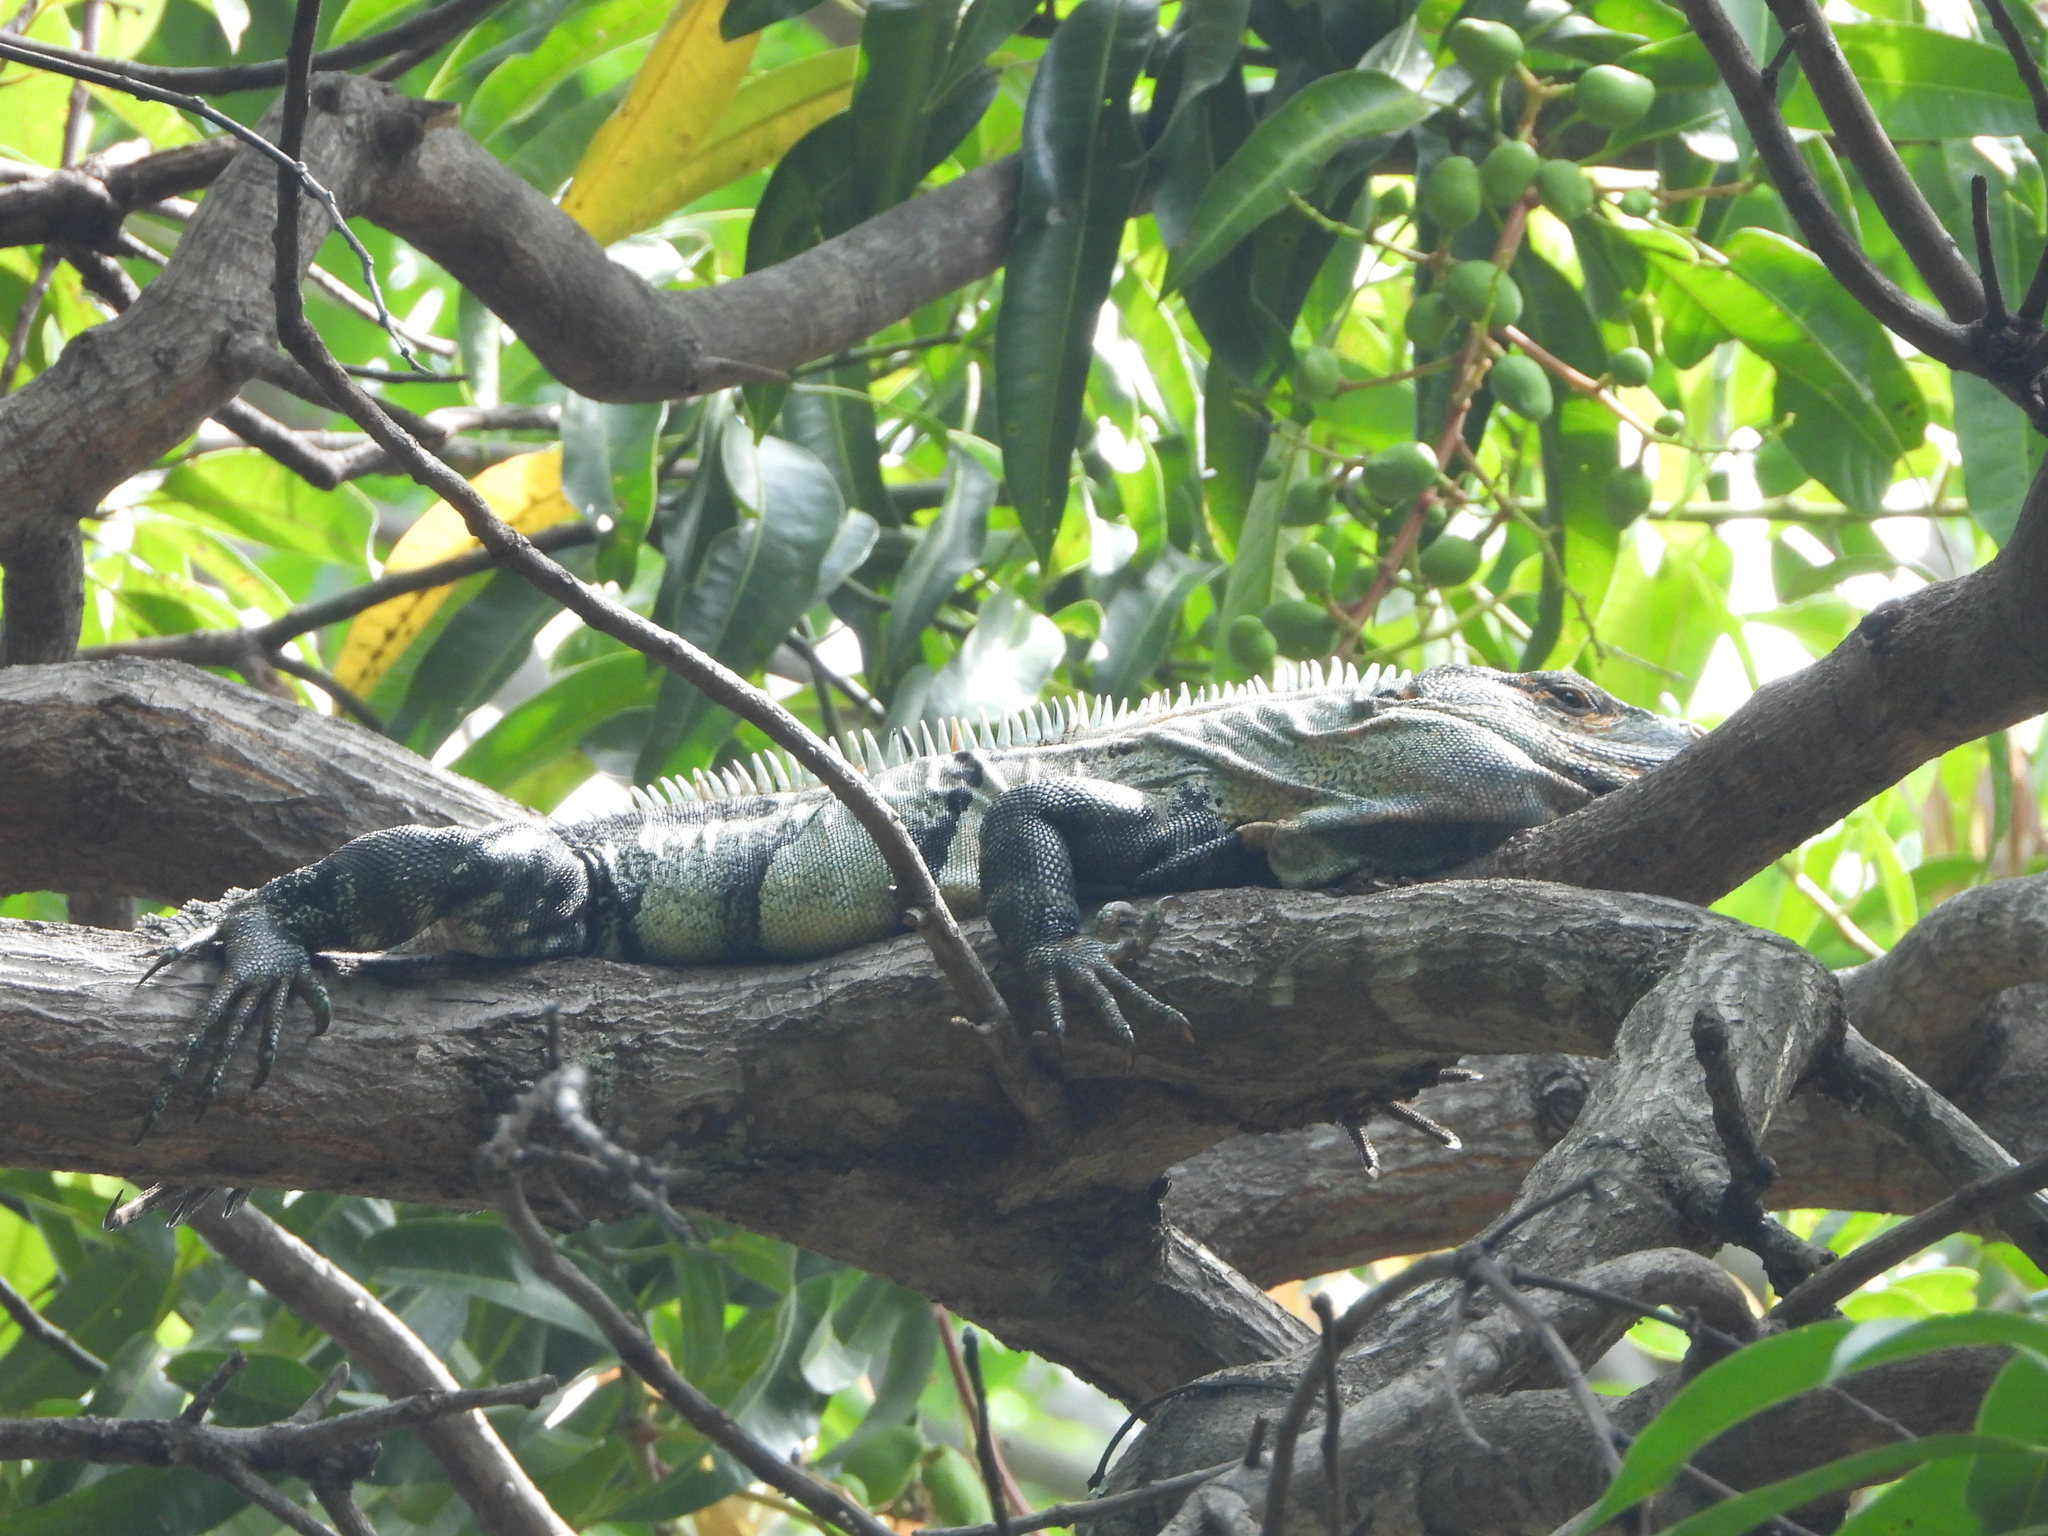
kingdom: Animalia
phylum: Chordata
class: Squamata
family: Iguanidae
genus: Ctenosaura
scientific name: Ctenosaura similis
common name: Black spiny-tailed iguana
